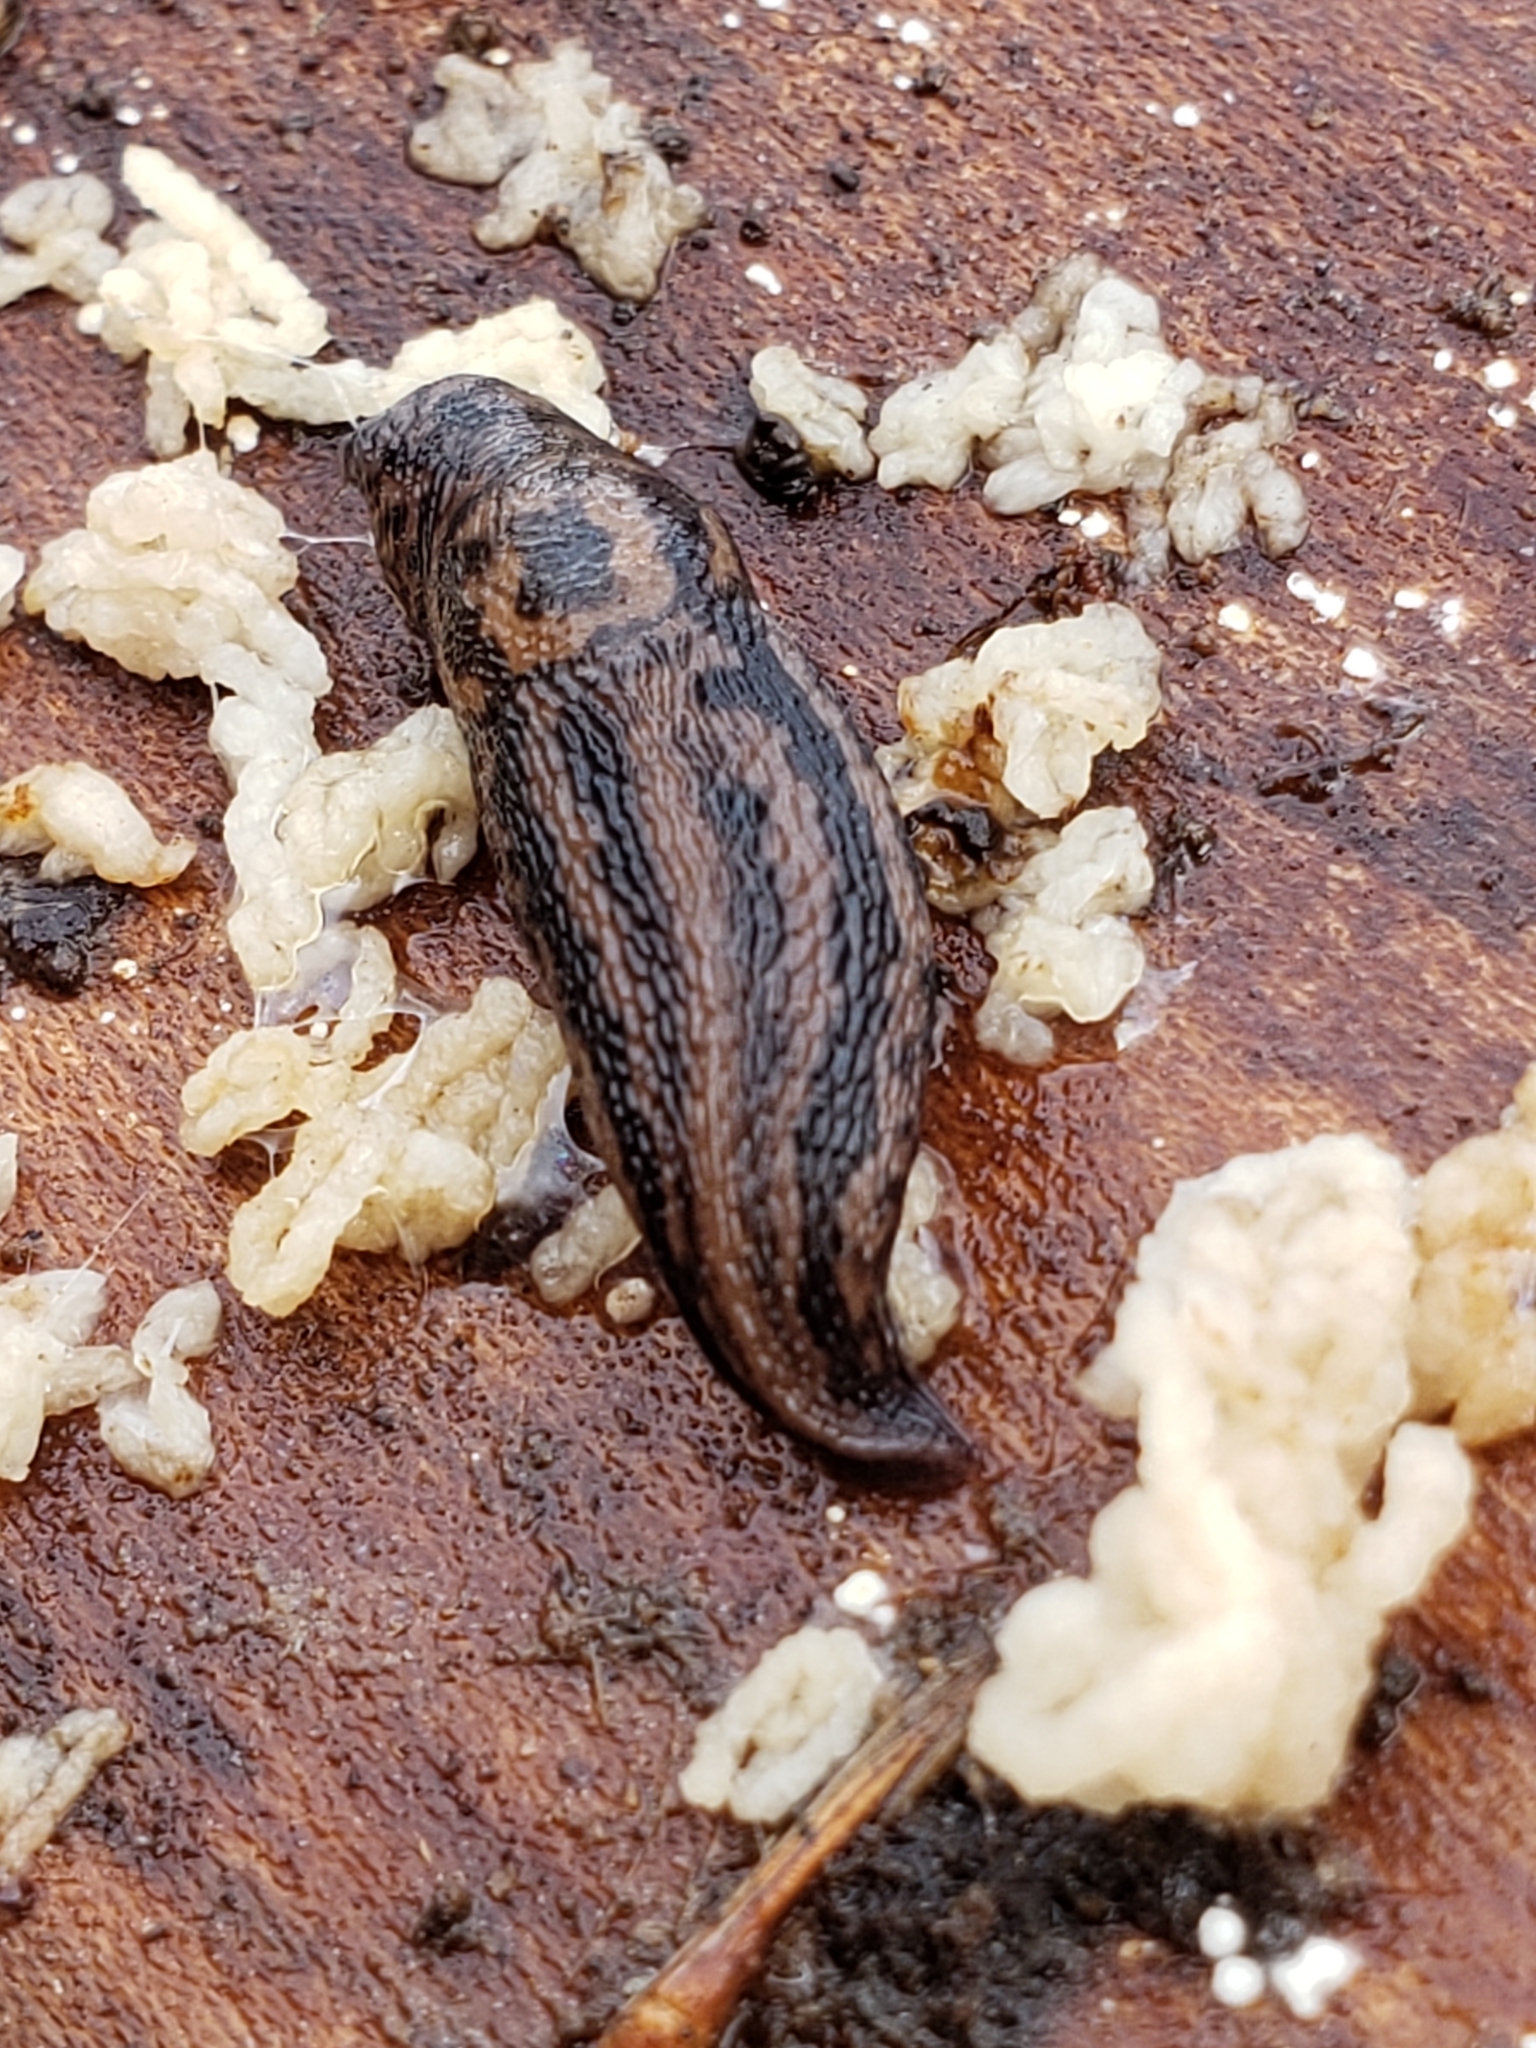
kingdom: Animalia
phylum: Mollusca
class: Gastropoda
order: Stylommatophora
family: Limacidae
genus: Limax
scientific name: Limax maximus
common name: Great grey slug
